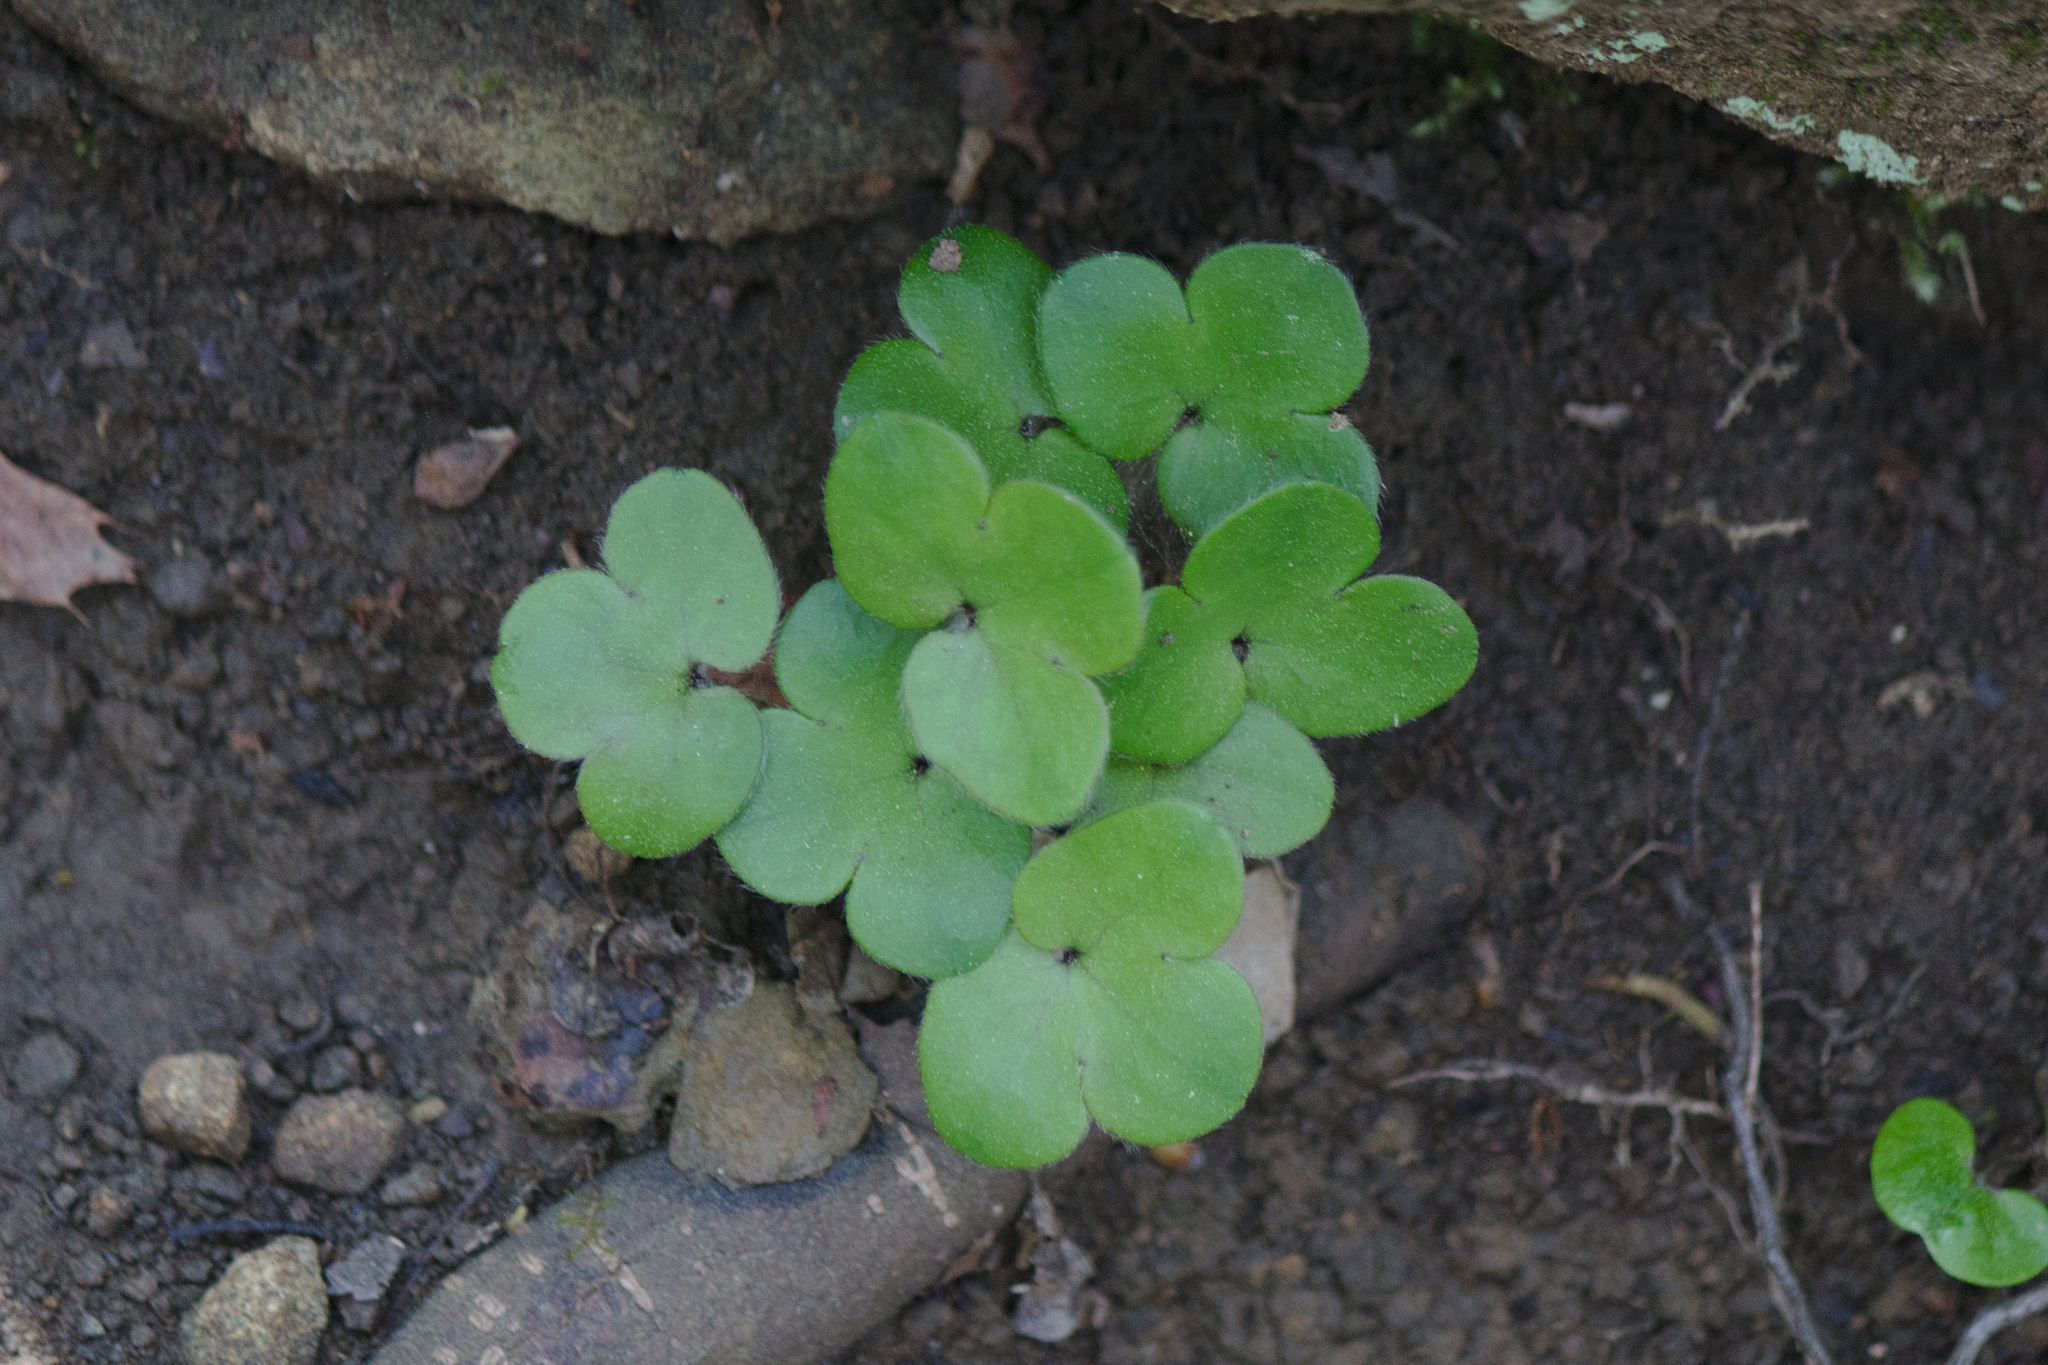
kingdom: Plantae
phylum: Tracheophyta
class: Magnoliopsida
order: Ranunculales
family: Ranunculaceae
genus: Hepatica
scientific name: Hepatica americana
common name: American hepatica
